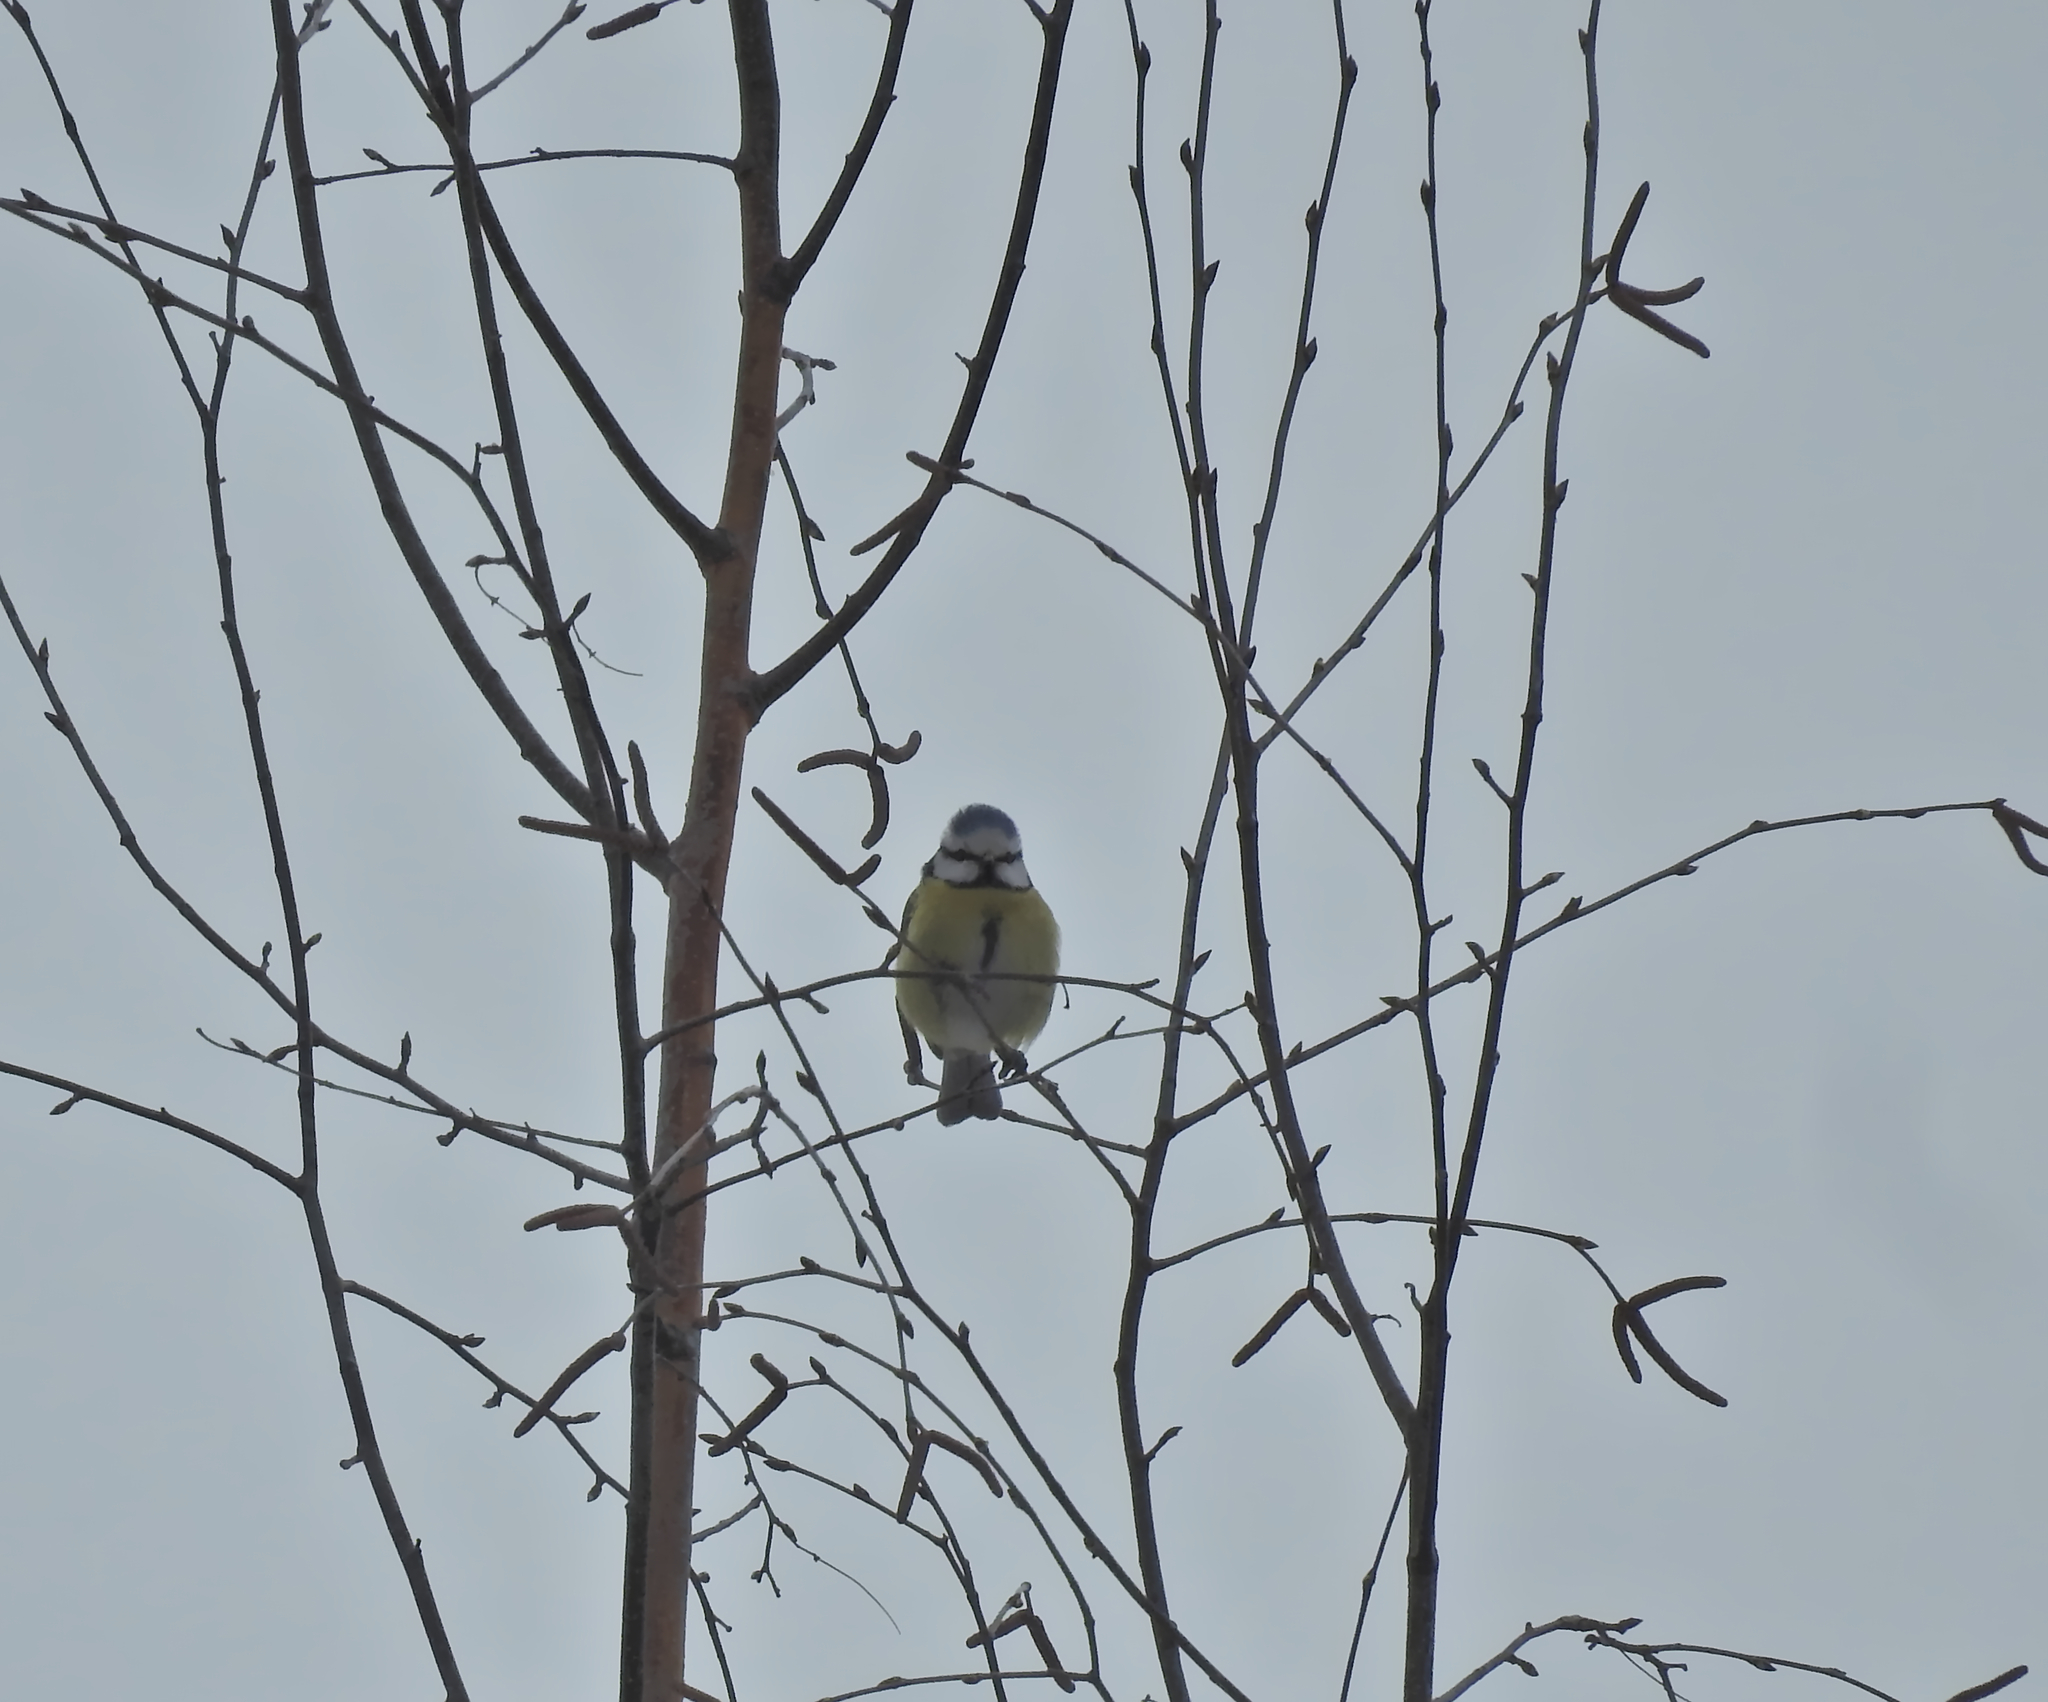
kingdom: Animalia
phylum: Chordata
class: Aves
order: Passeriformes
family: Paridae
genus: Cyanistes
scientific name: Cyanistes caeruleus
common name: Eurasian blue tit
